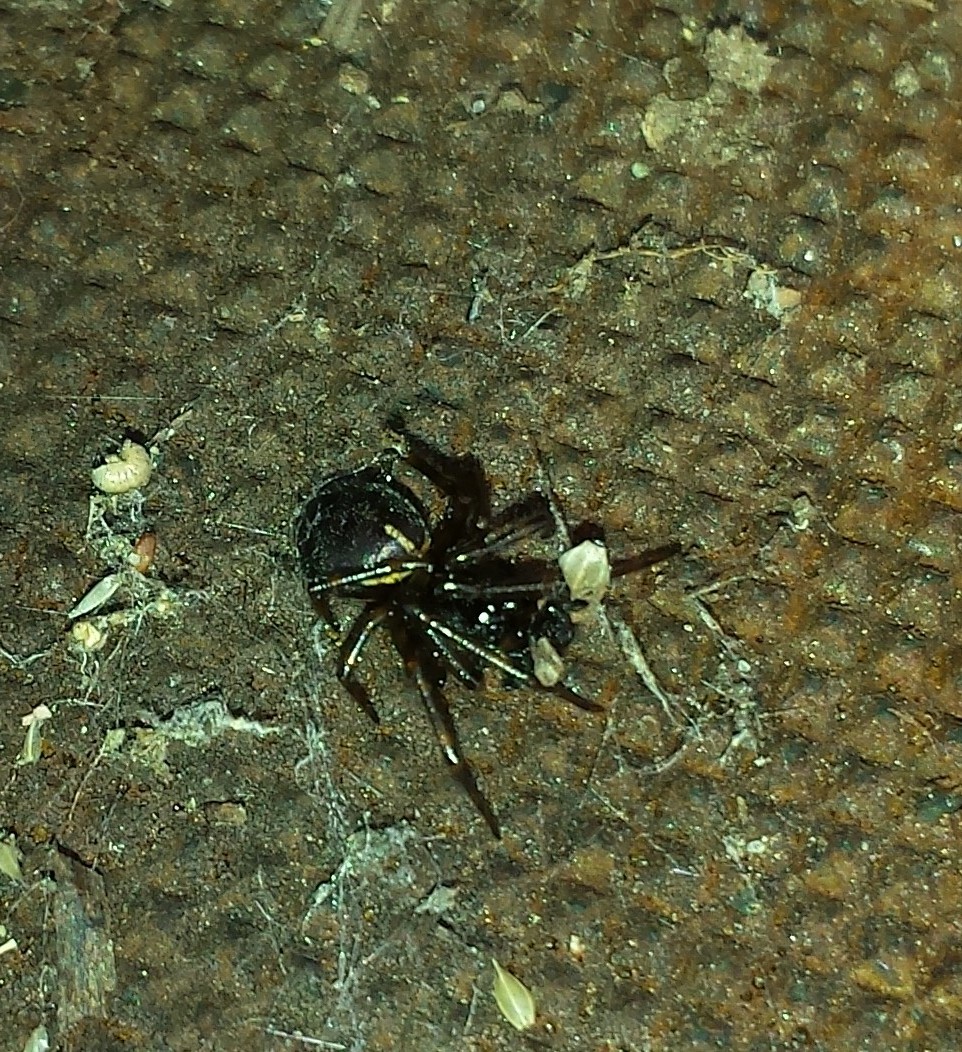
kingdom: Animalia
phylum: Arthropoda
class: Arachnida
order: Araneae
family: Theridiidae
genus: Steatoda
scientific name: Steatoda borealis
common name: Boreal combfoot
